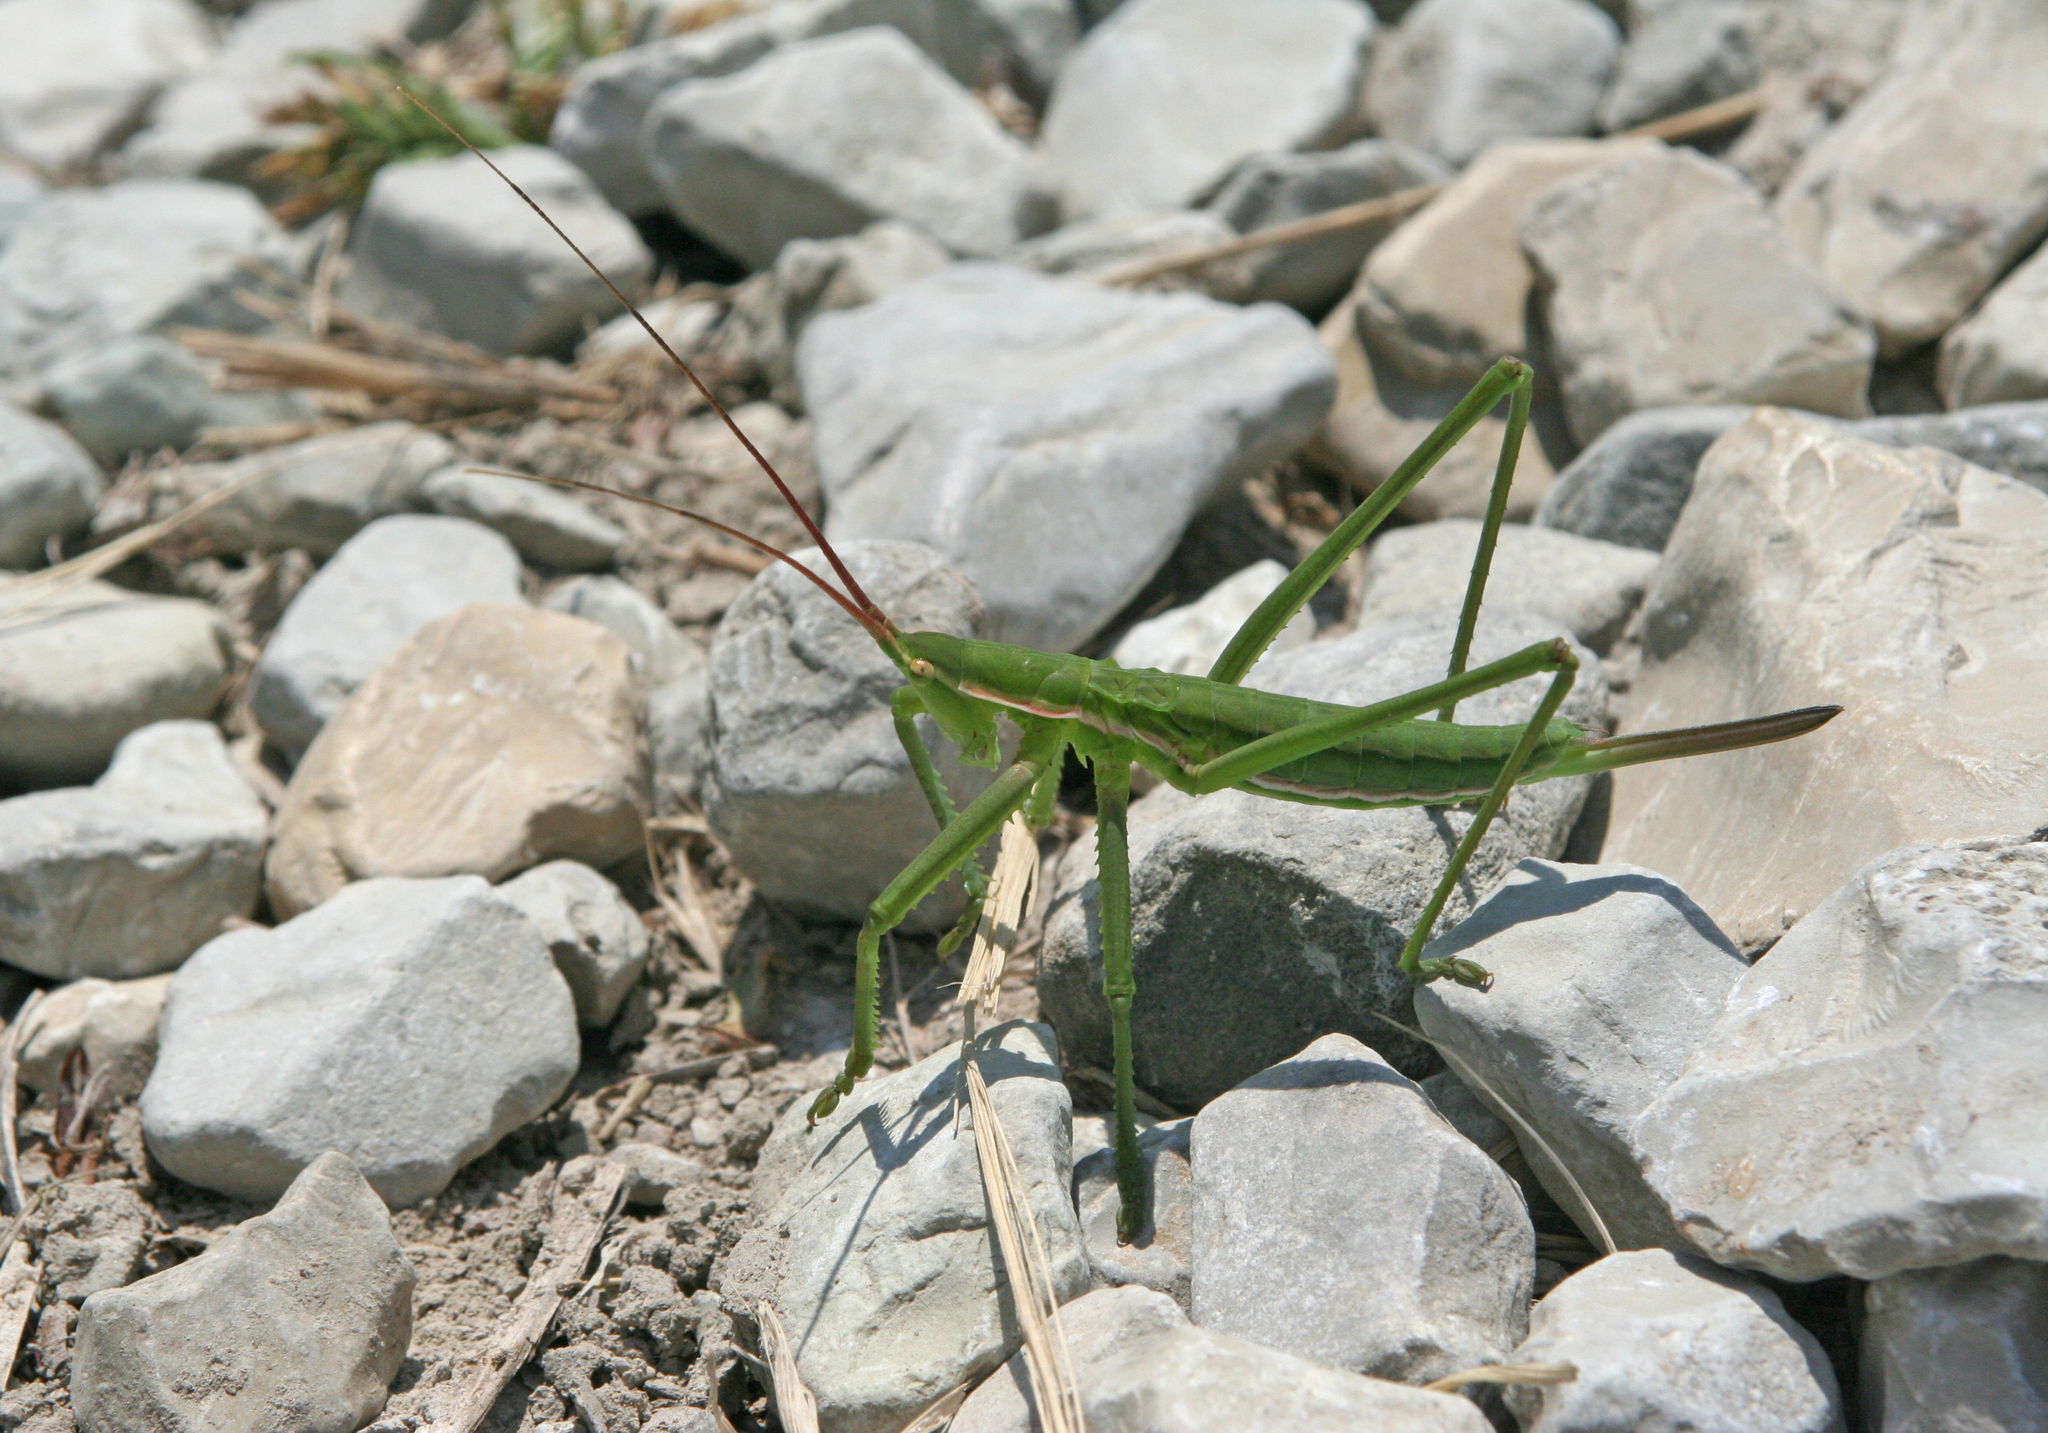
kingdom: Animalia
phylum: Arthropoda
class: Insecta
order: Orthoptera
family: Tettigoniidae
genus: Saga
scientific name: Saga pedo
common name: Common predatory bush-cricket
